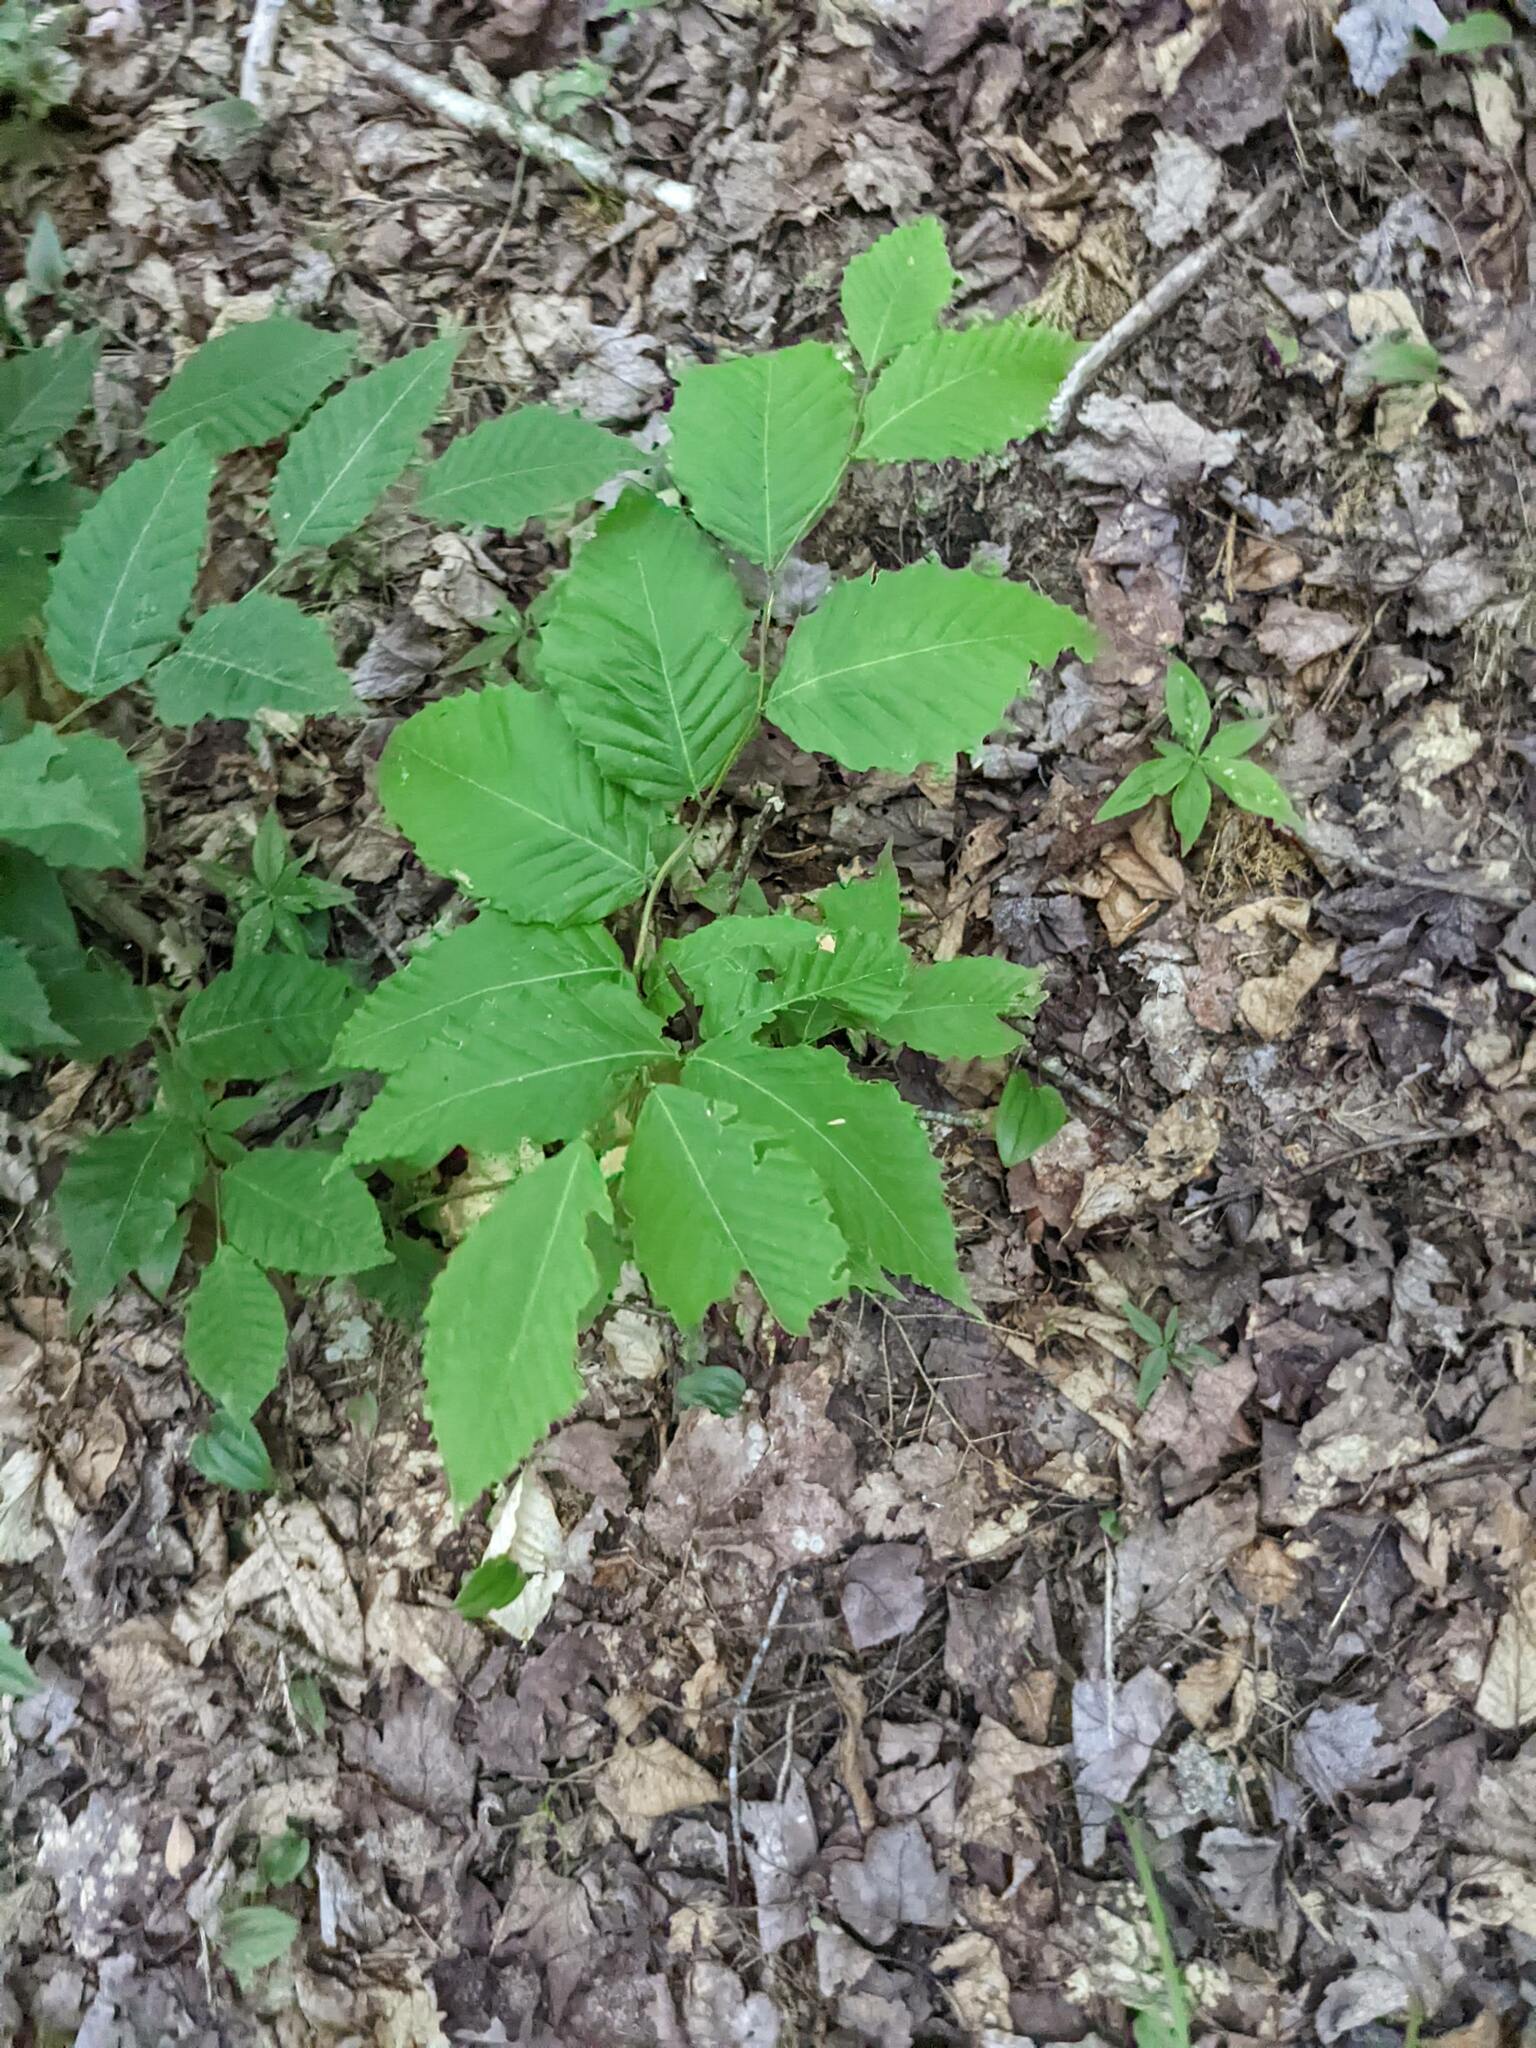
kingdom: Plantae
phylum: Tracheophyta
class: Magnoliopsida
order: Fagales
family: Fagaceae
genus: Fagus
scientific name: Fagus grandifolia
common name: American beech
